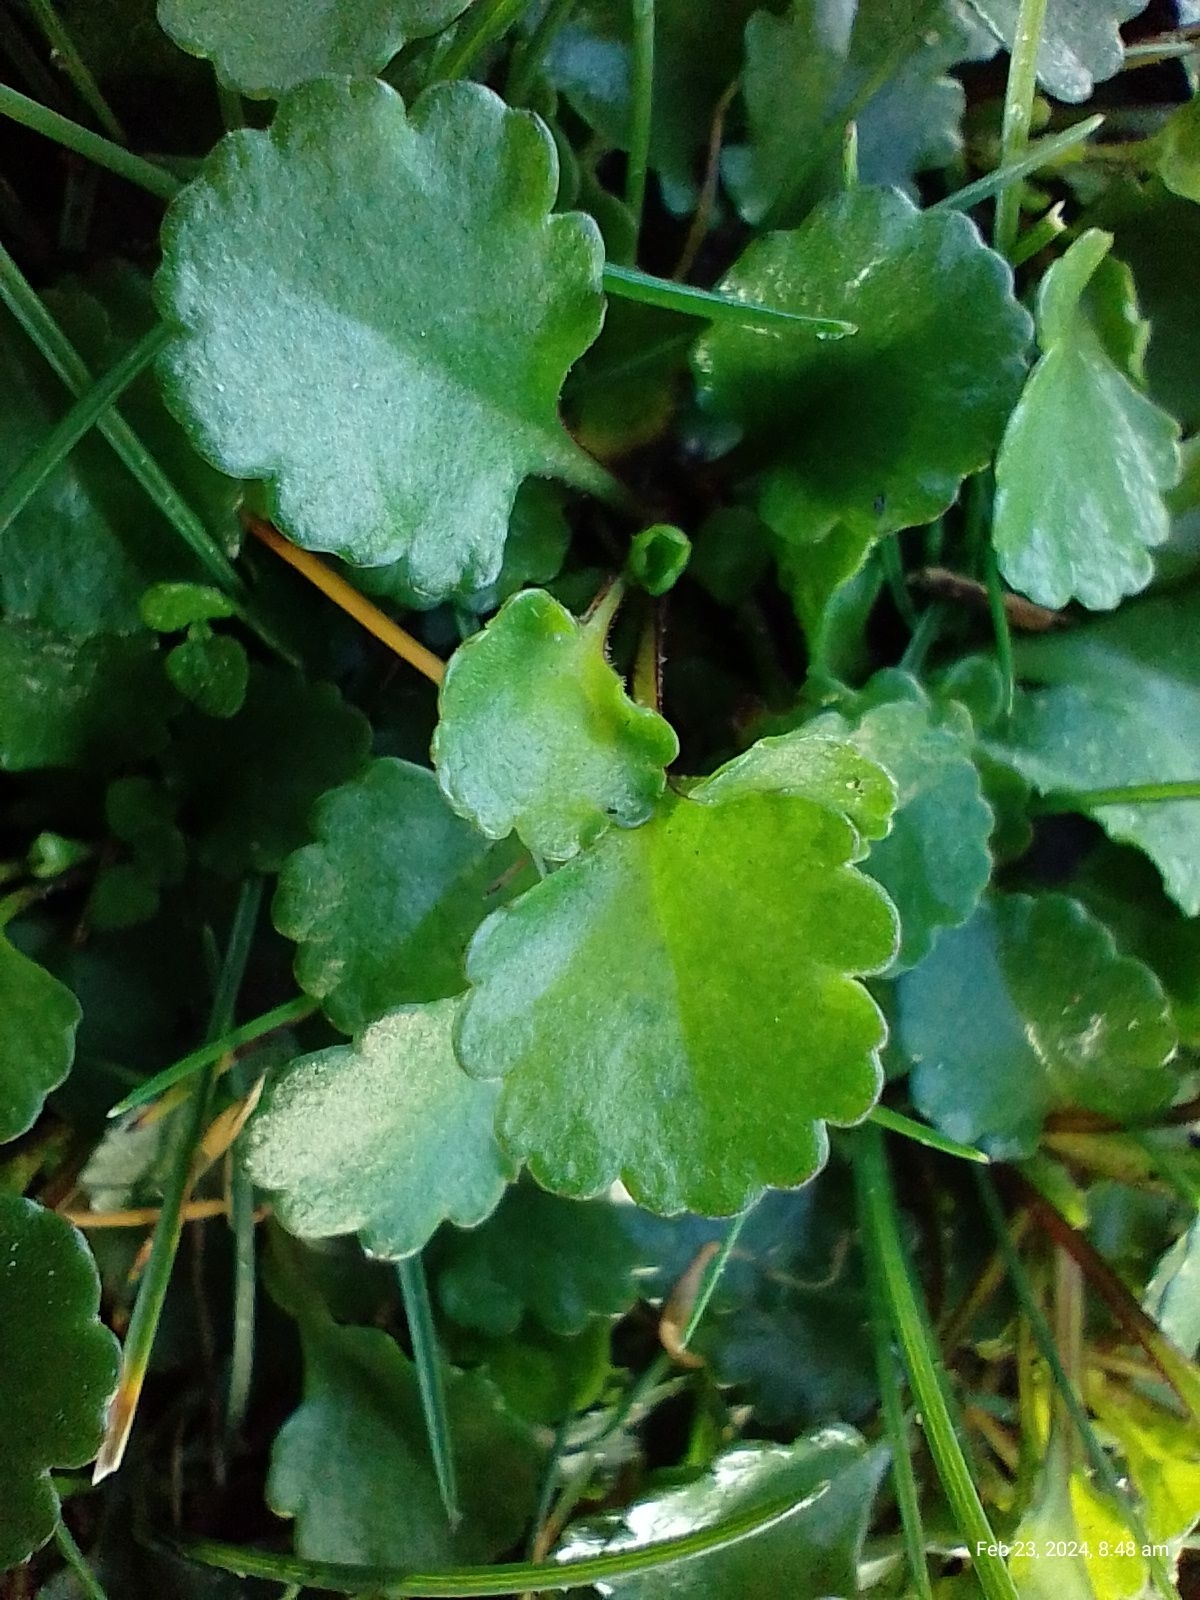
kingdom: Plantae
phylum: Tracheophyta
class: Magnoliopsida
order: Asterales
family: Asteraceae
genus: Leucanthemum
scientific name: Leucanthemum vulgare
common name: Oxeye daisy
